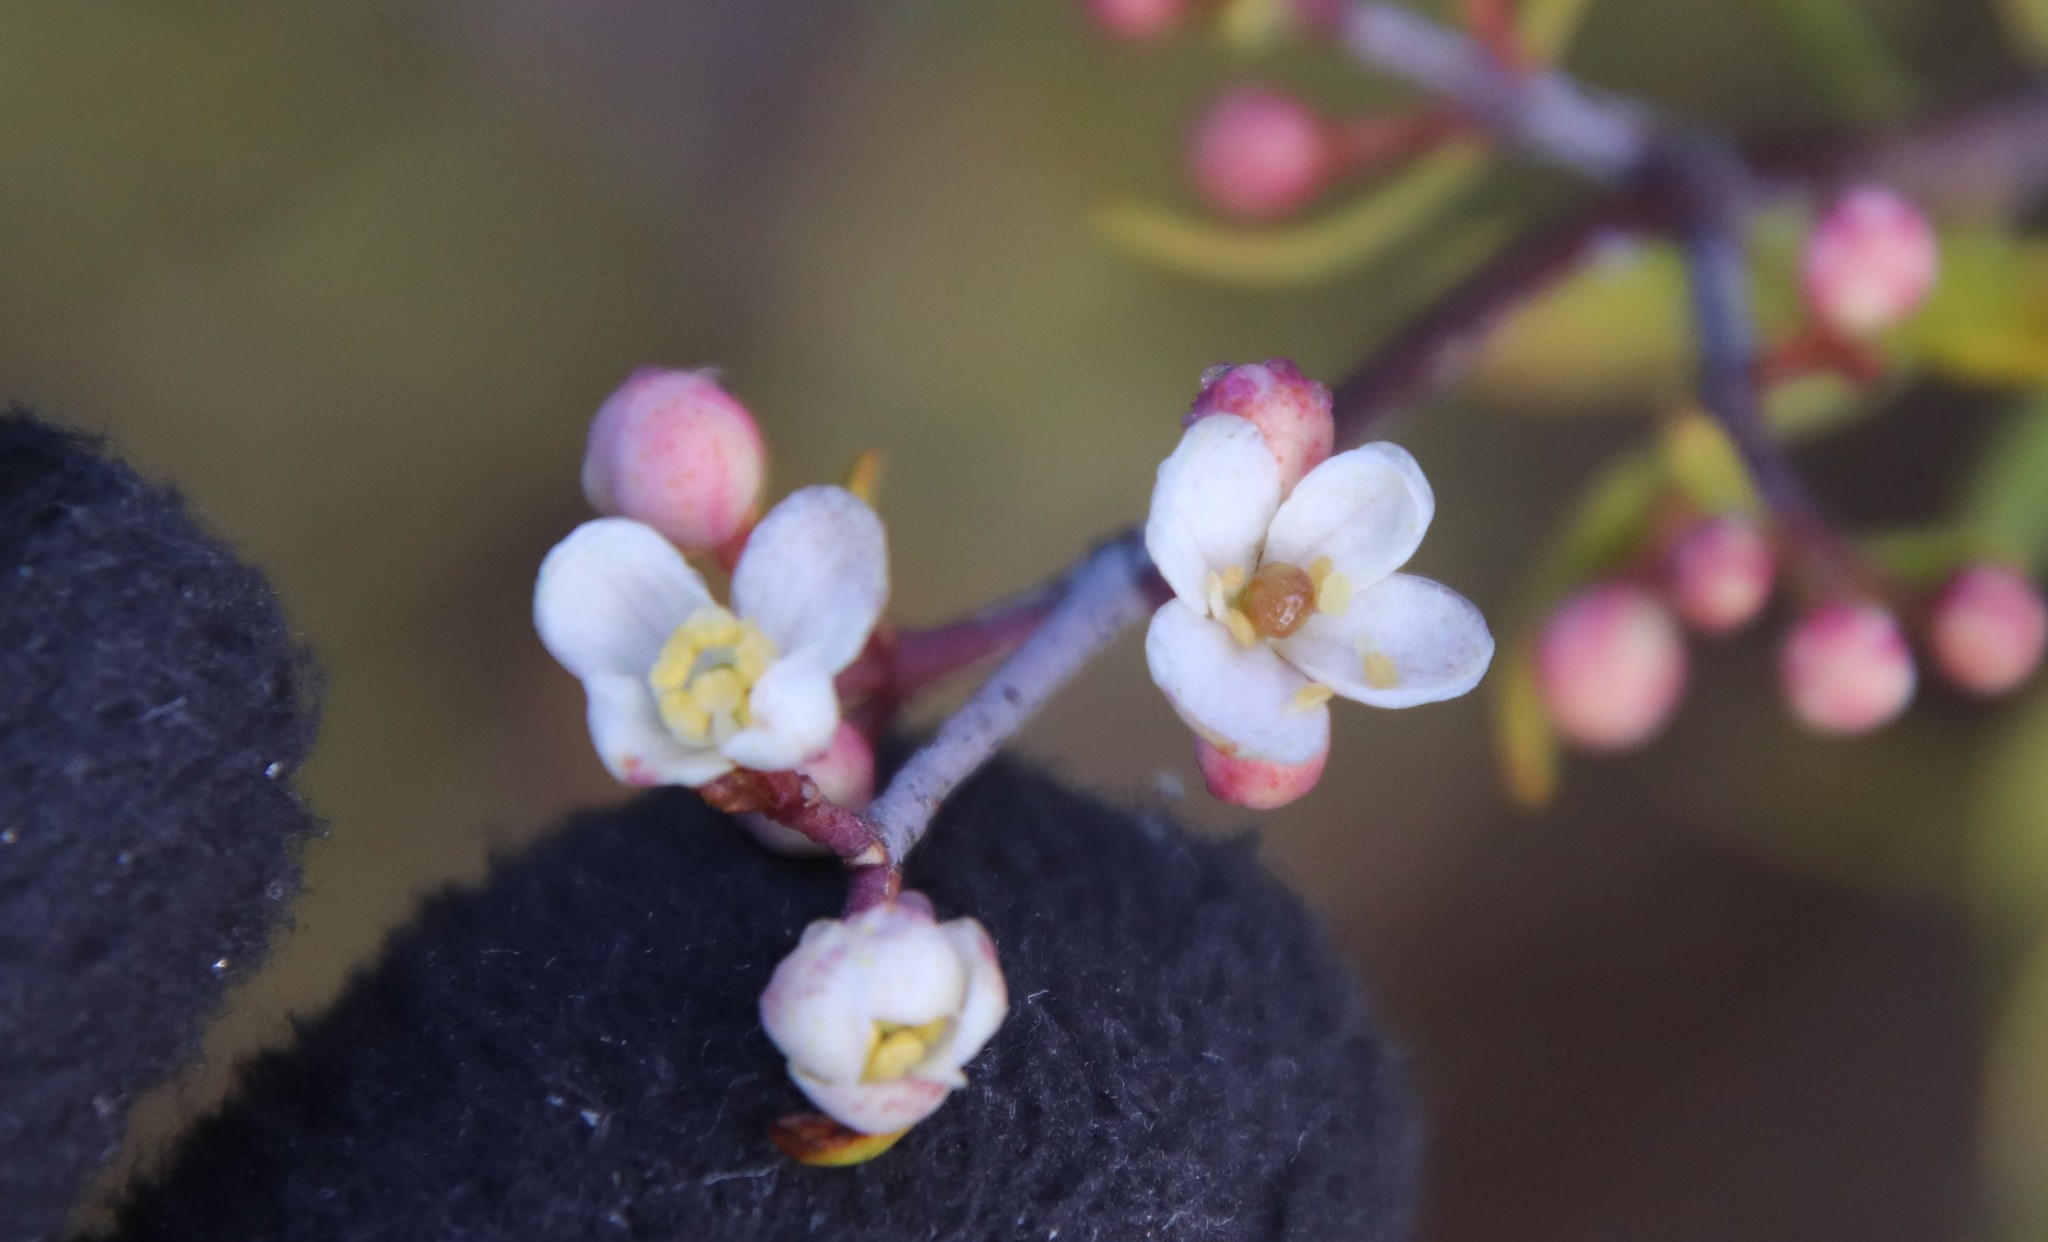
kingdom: Plantae
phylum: Tracheophyta
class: Magnoliopsida
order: Sapindales
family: Rutaceae
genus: Cneoridium
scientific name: Cneoridium dumosum
